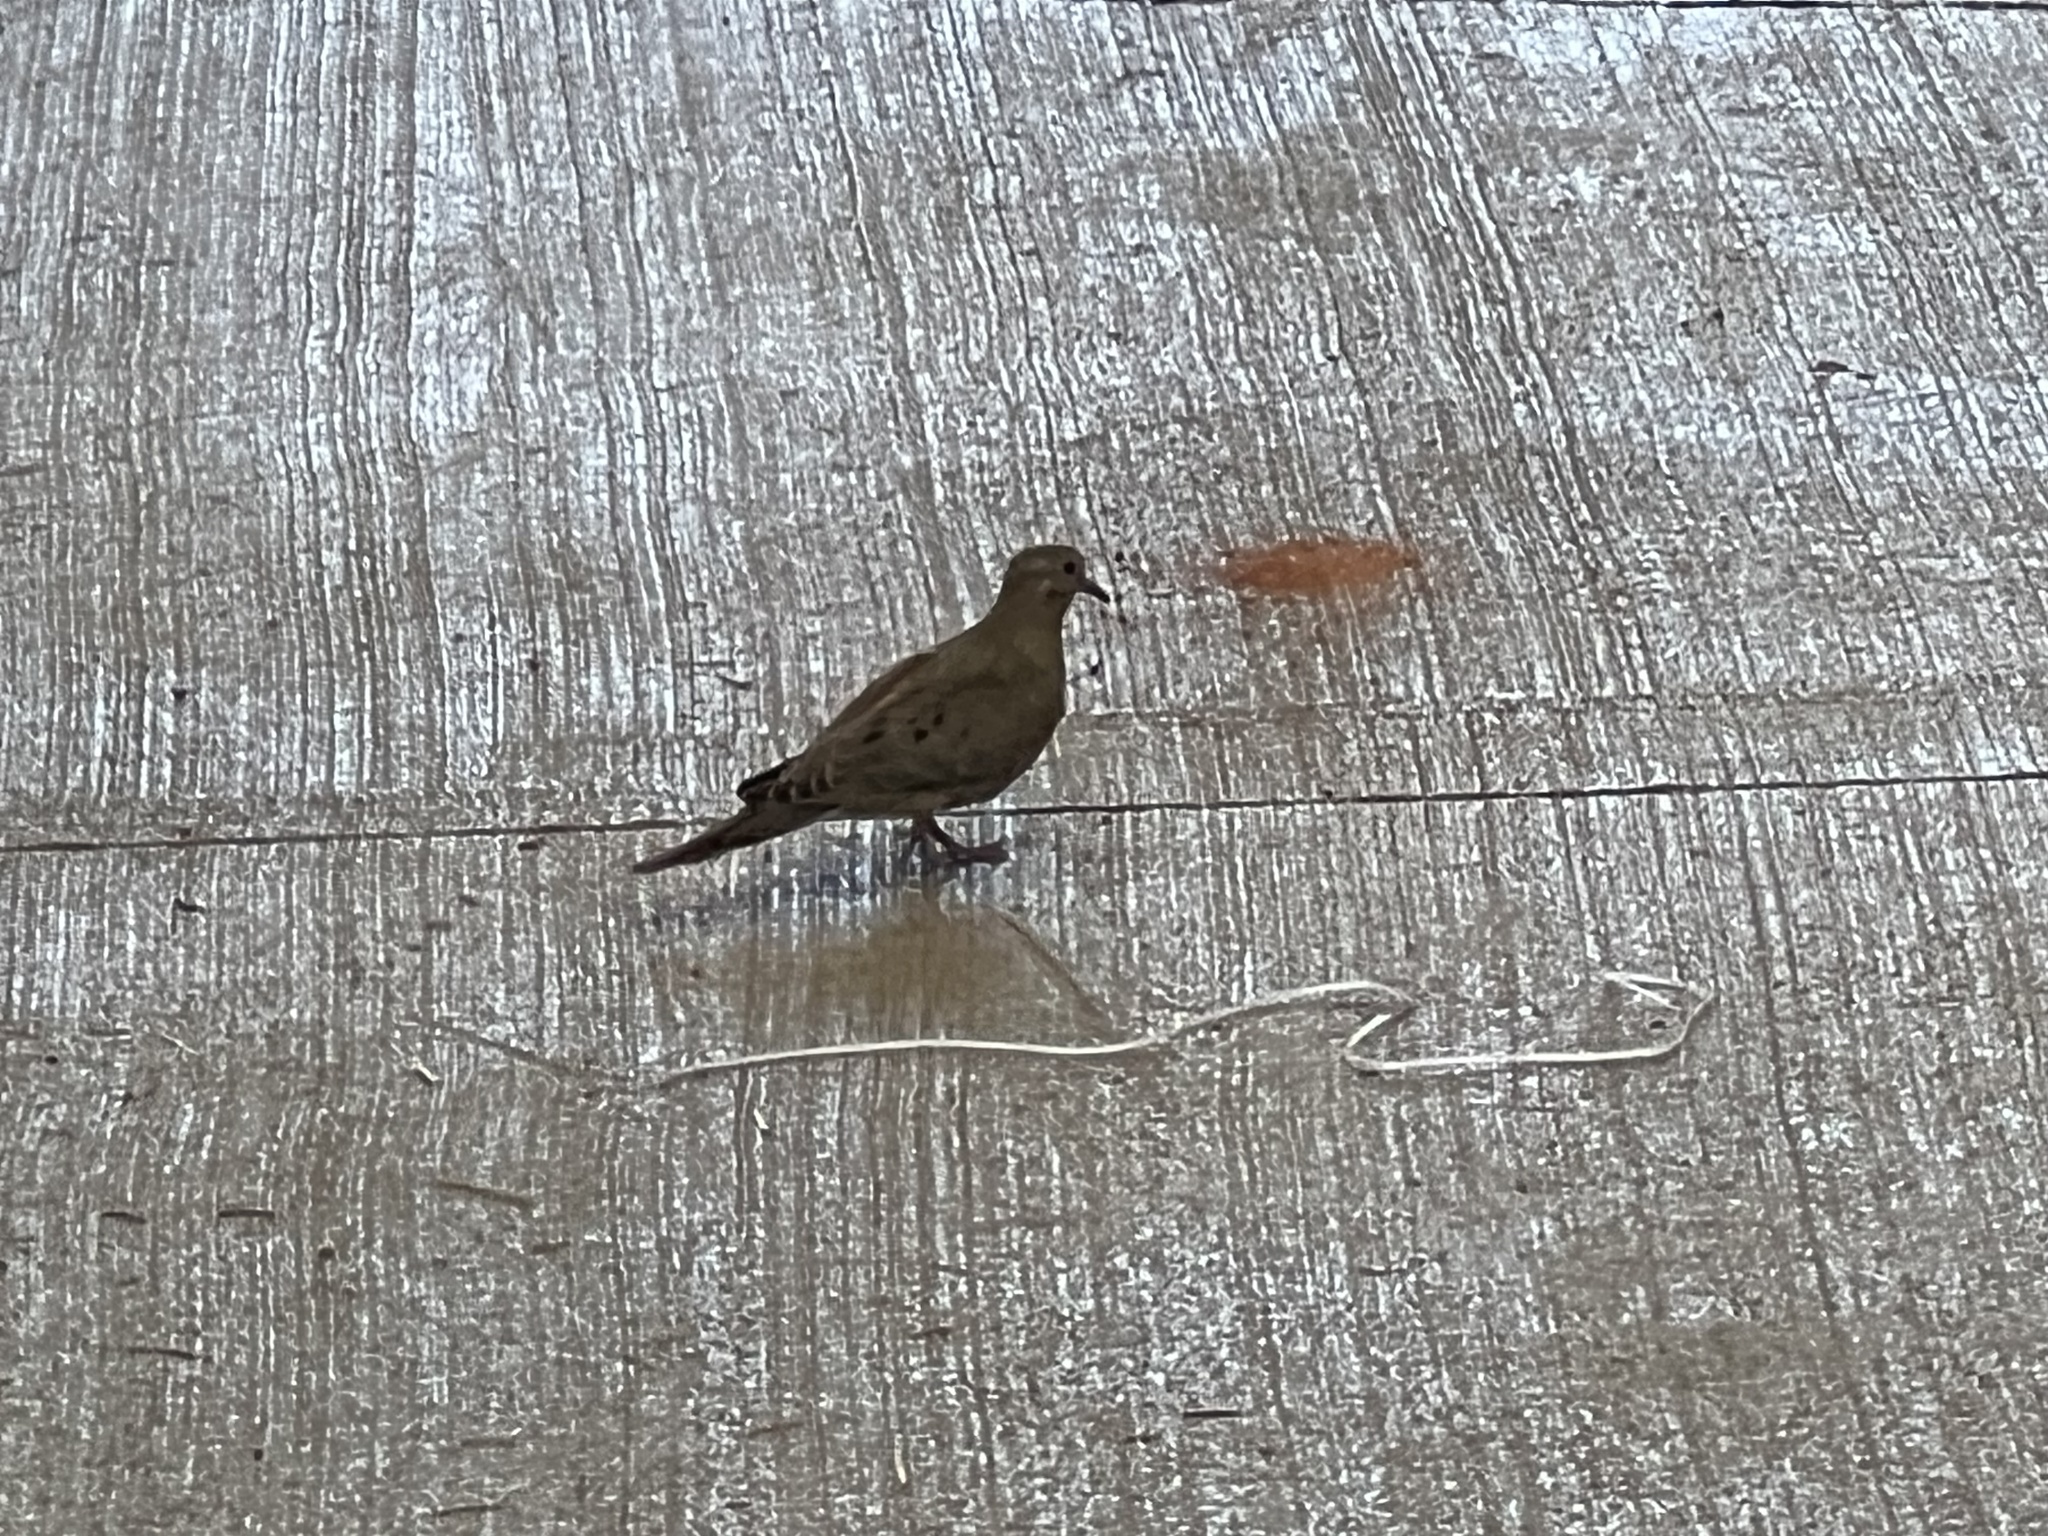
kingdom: Animalia
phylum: Chordata
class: Aves
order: Columbiformes
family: Columbidae
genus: Zenaida
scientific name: Zenaida macroura
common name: Mourning dove
